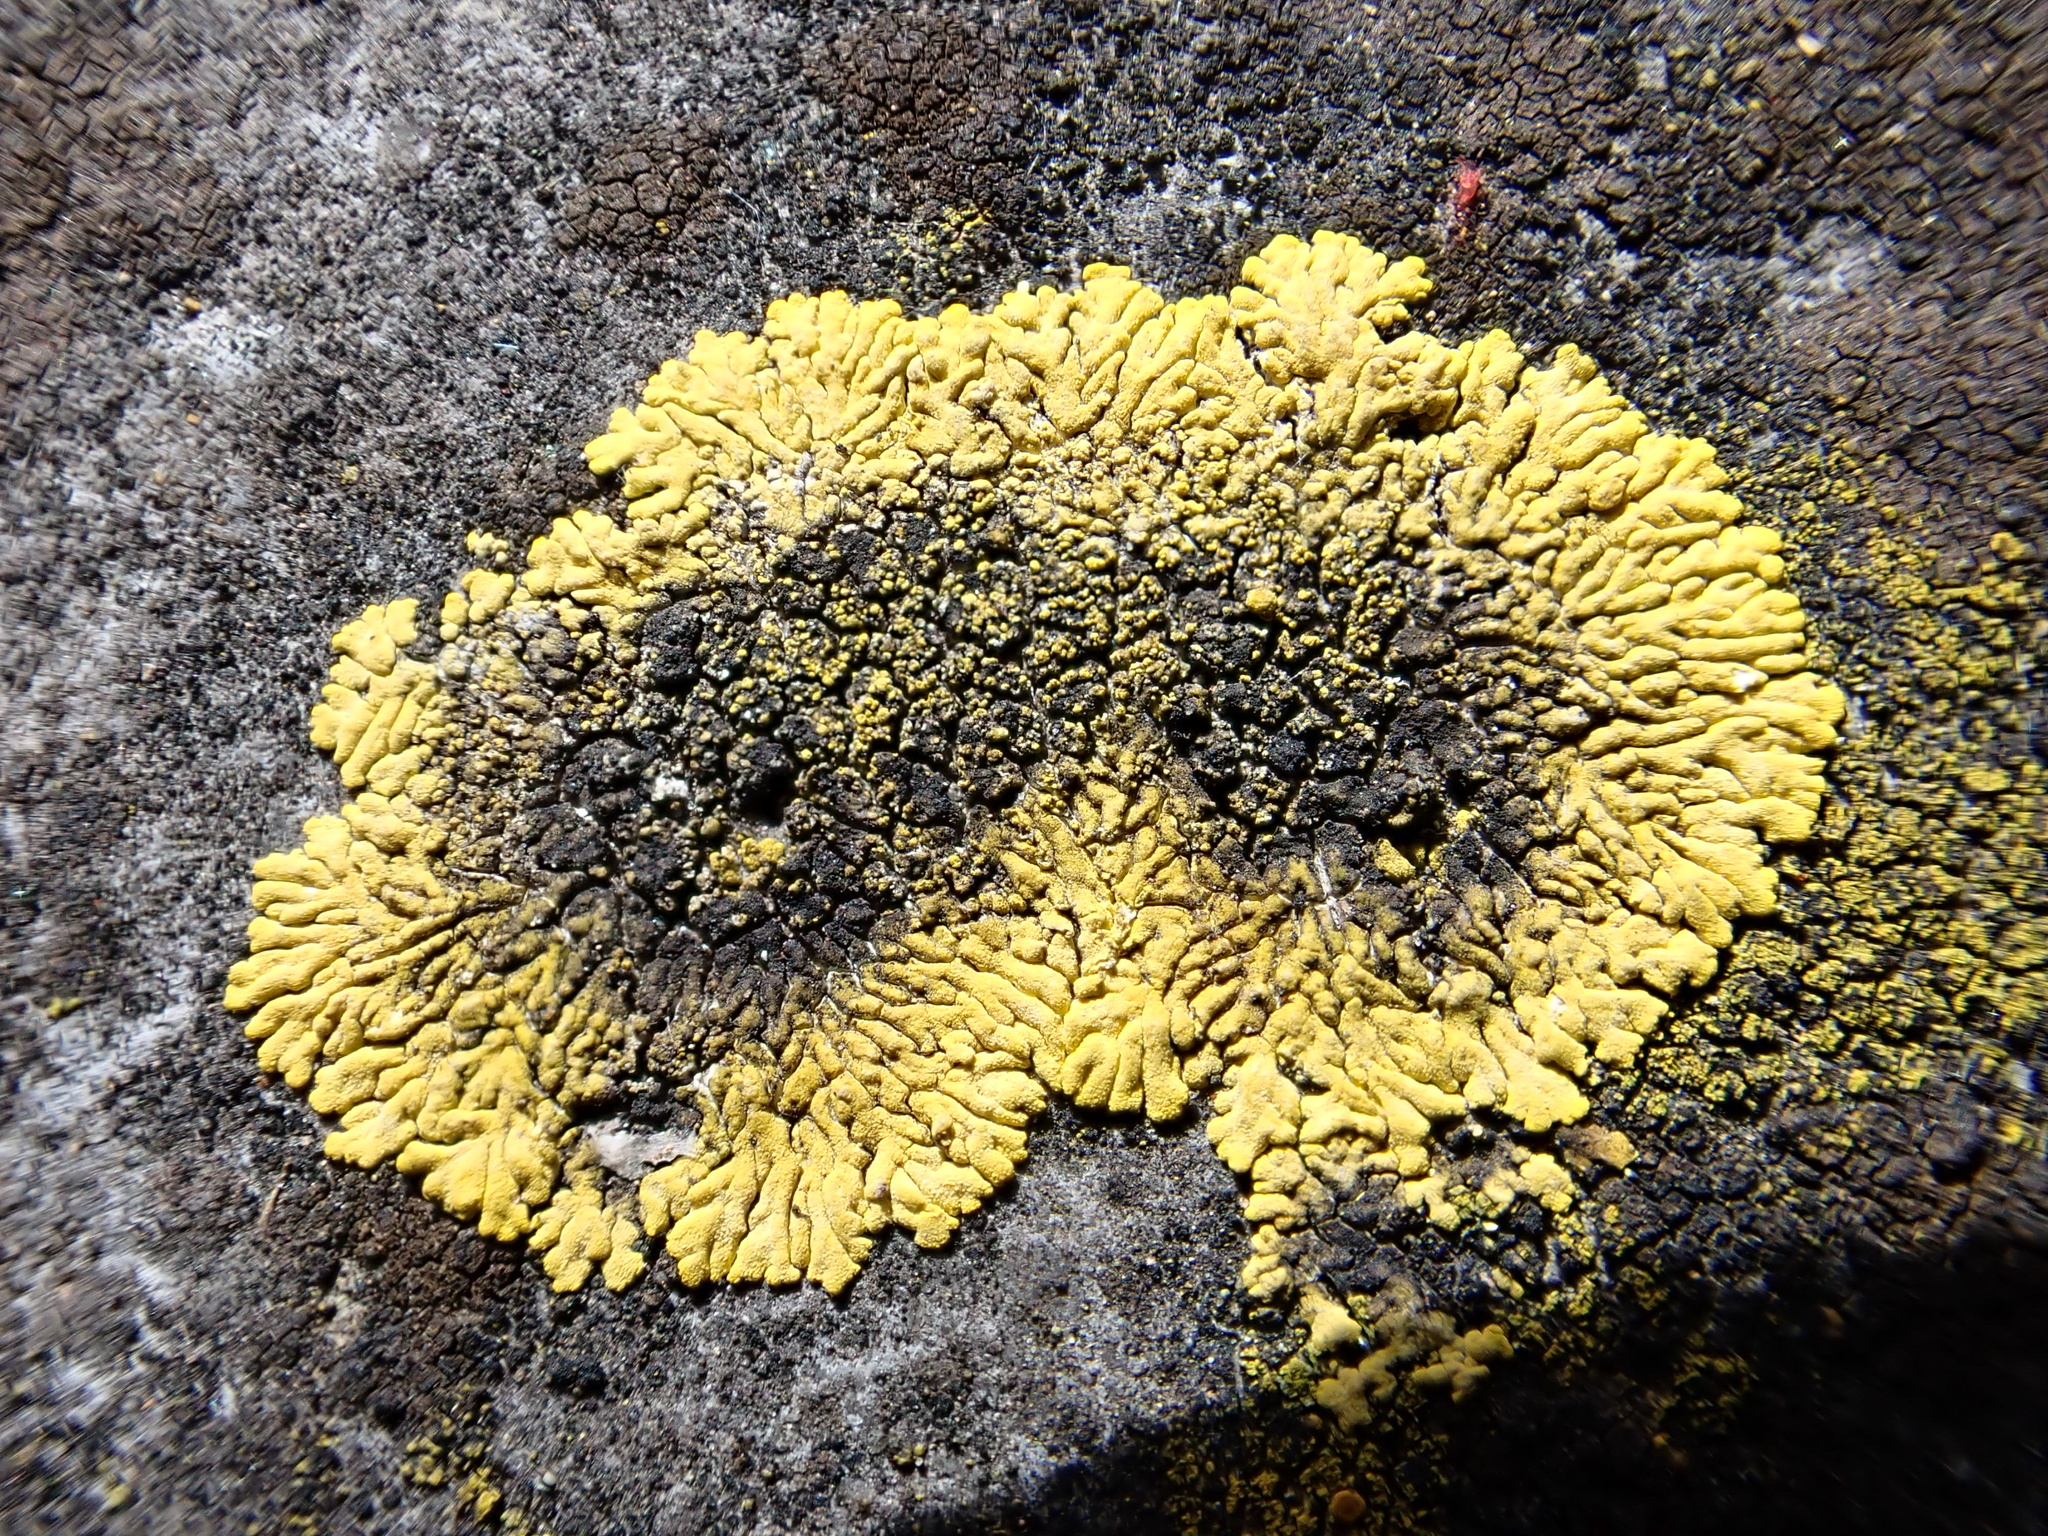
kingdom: Fungi
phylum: Ascomycota
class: Lecanoromycetes
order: Teloschistales
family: Teloschistaceae
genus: Calogaya
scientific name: Calogaya decipiens
